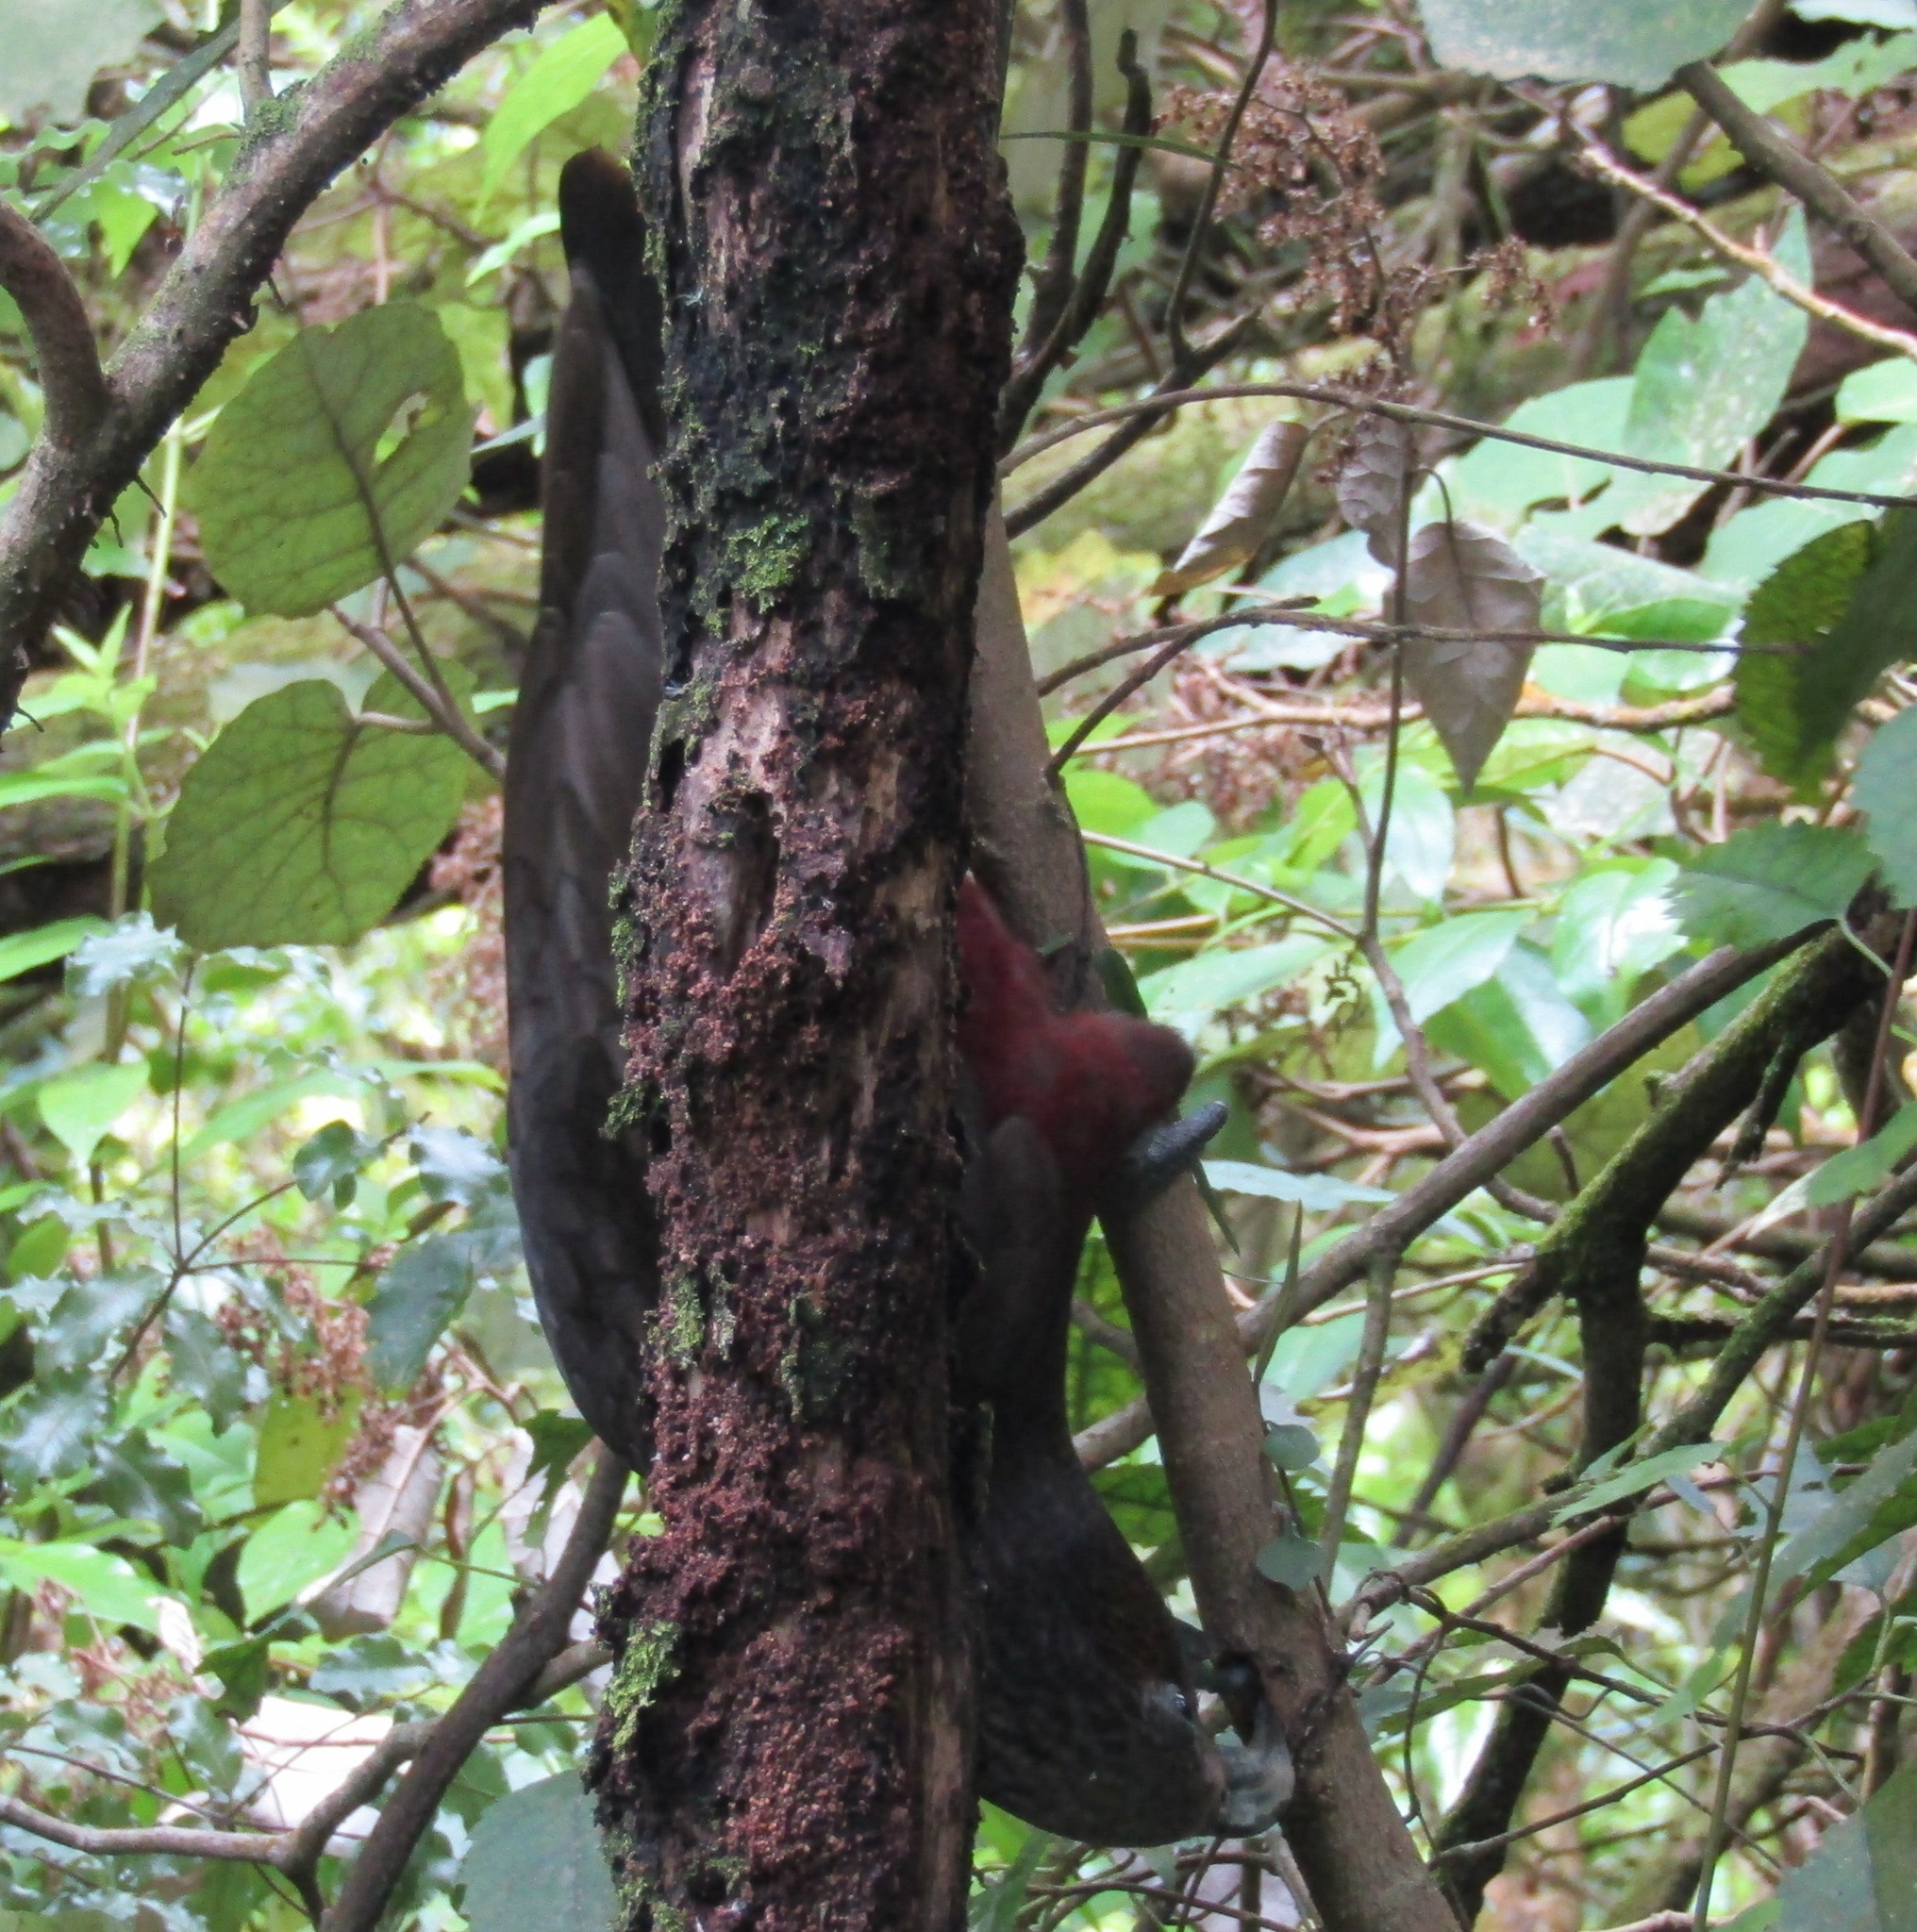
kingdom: Animalia
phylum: Chordata
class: Aves
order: Psittaciformes
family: Psittacidae
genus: Nestor
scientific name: Nestor meridionalis
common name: New zealand kaka
